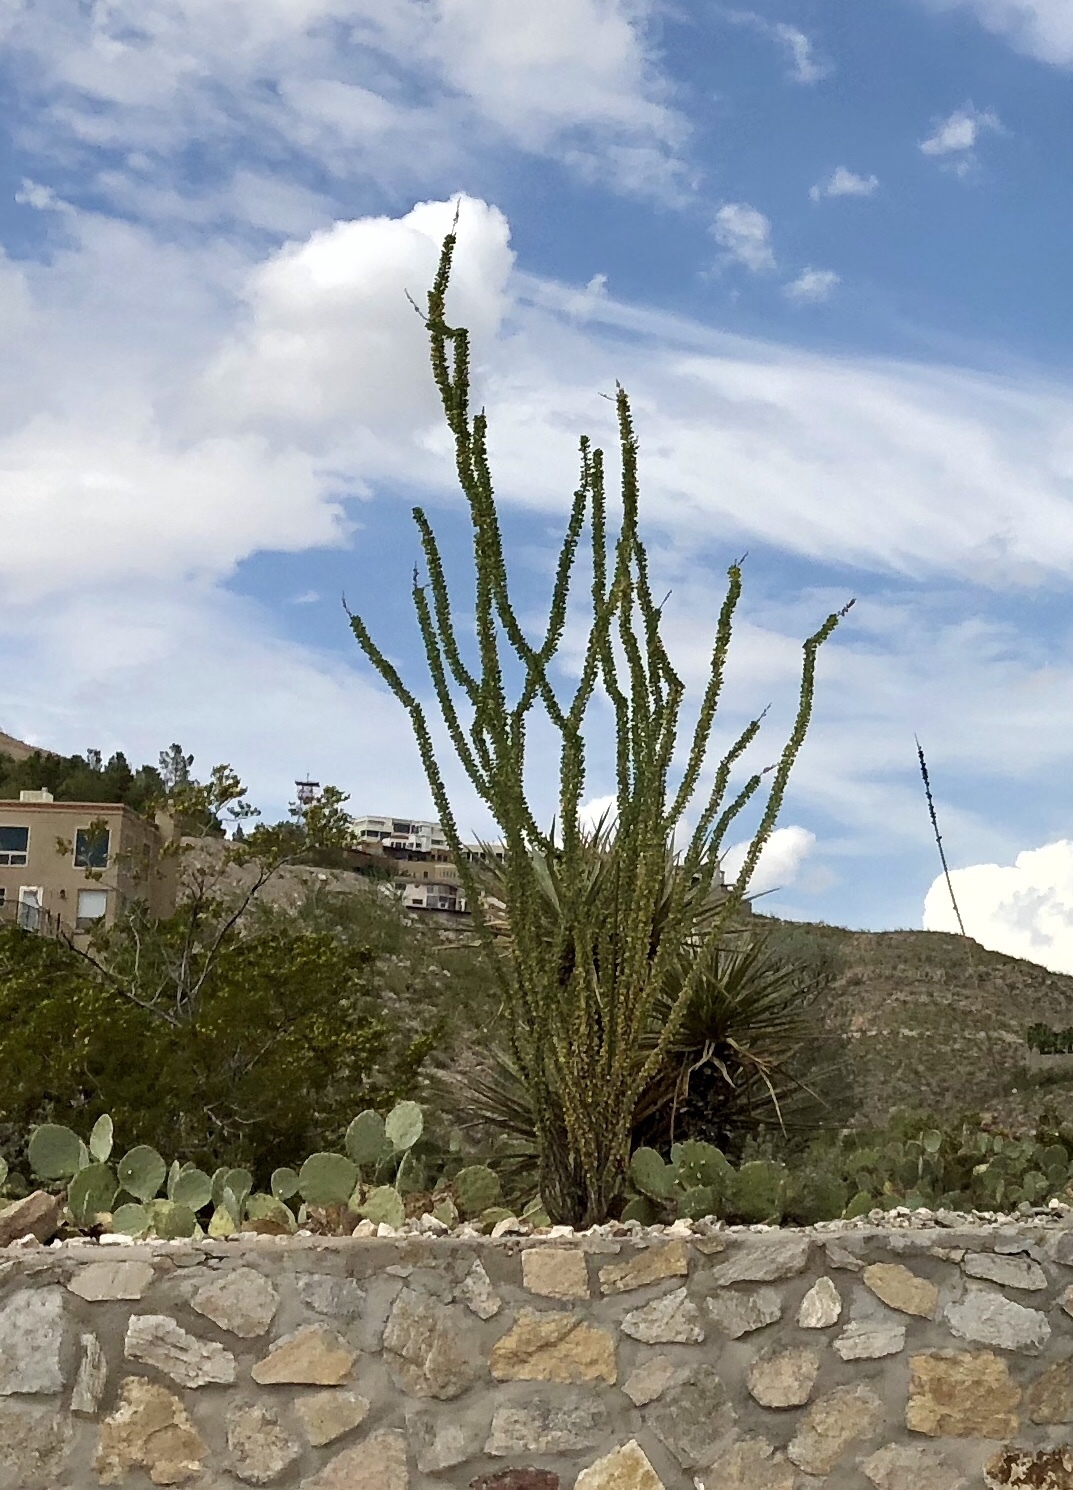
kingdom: Plantae
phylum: Tracheophyta
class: Magnoliopsida
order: Ericales
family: Fouquieriaceae
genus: Fouquieria
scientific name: Fouquieria splendens
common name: Vine-cactus
